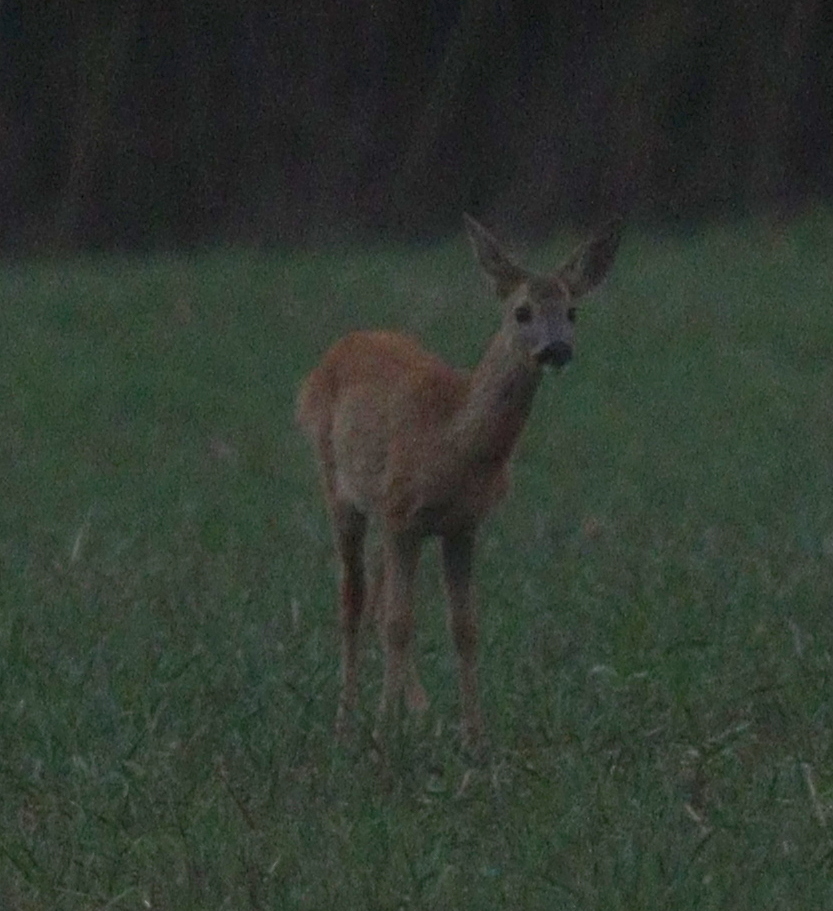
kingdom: Animalia
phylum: Chordata
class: Mammalia
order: Artiodactyla
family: Cervidae
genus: Capreolus
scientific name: Capreolus capreolus
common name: Western roe deer
